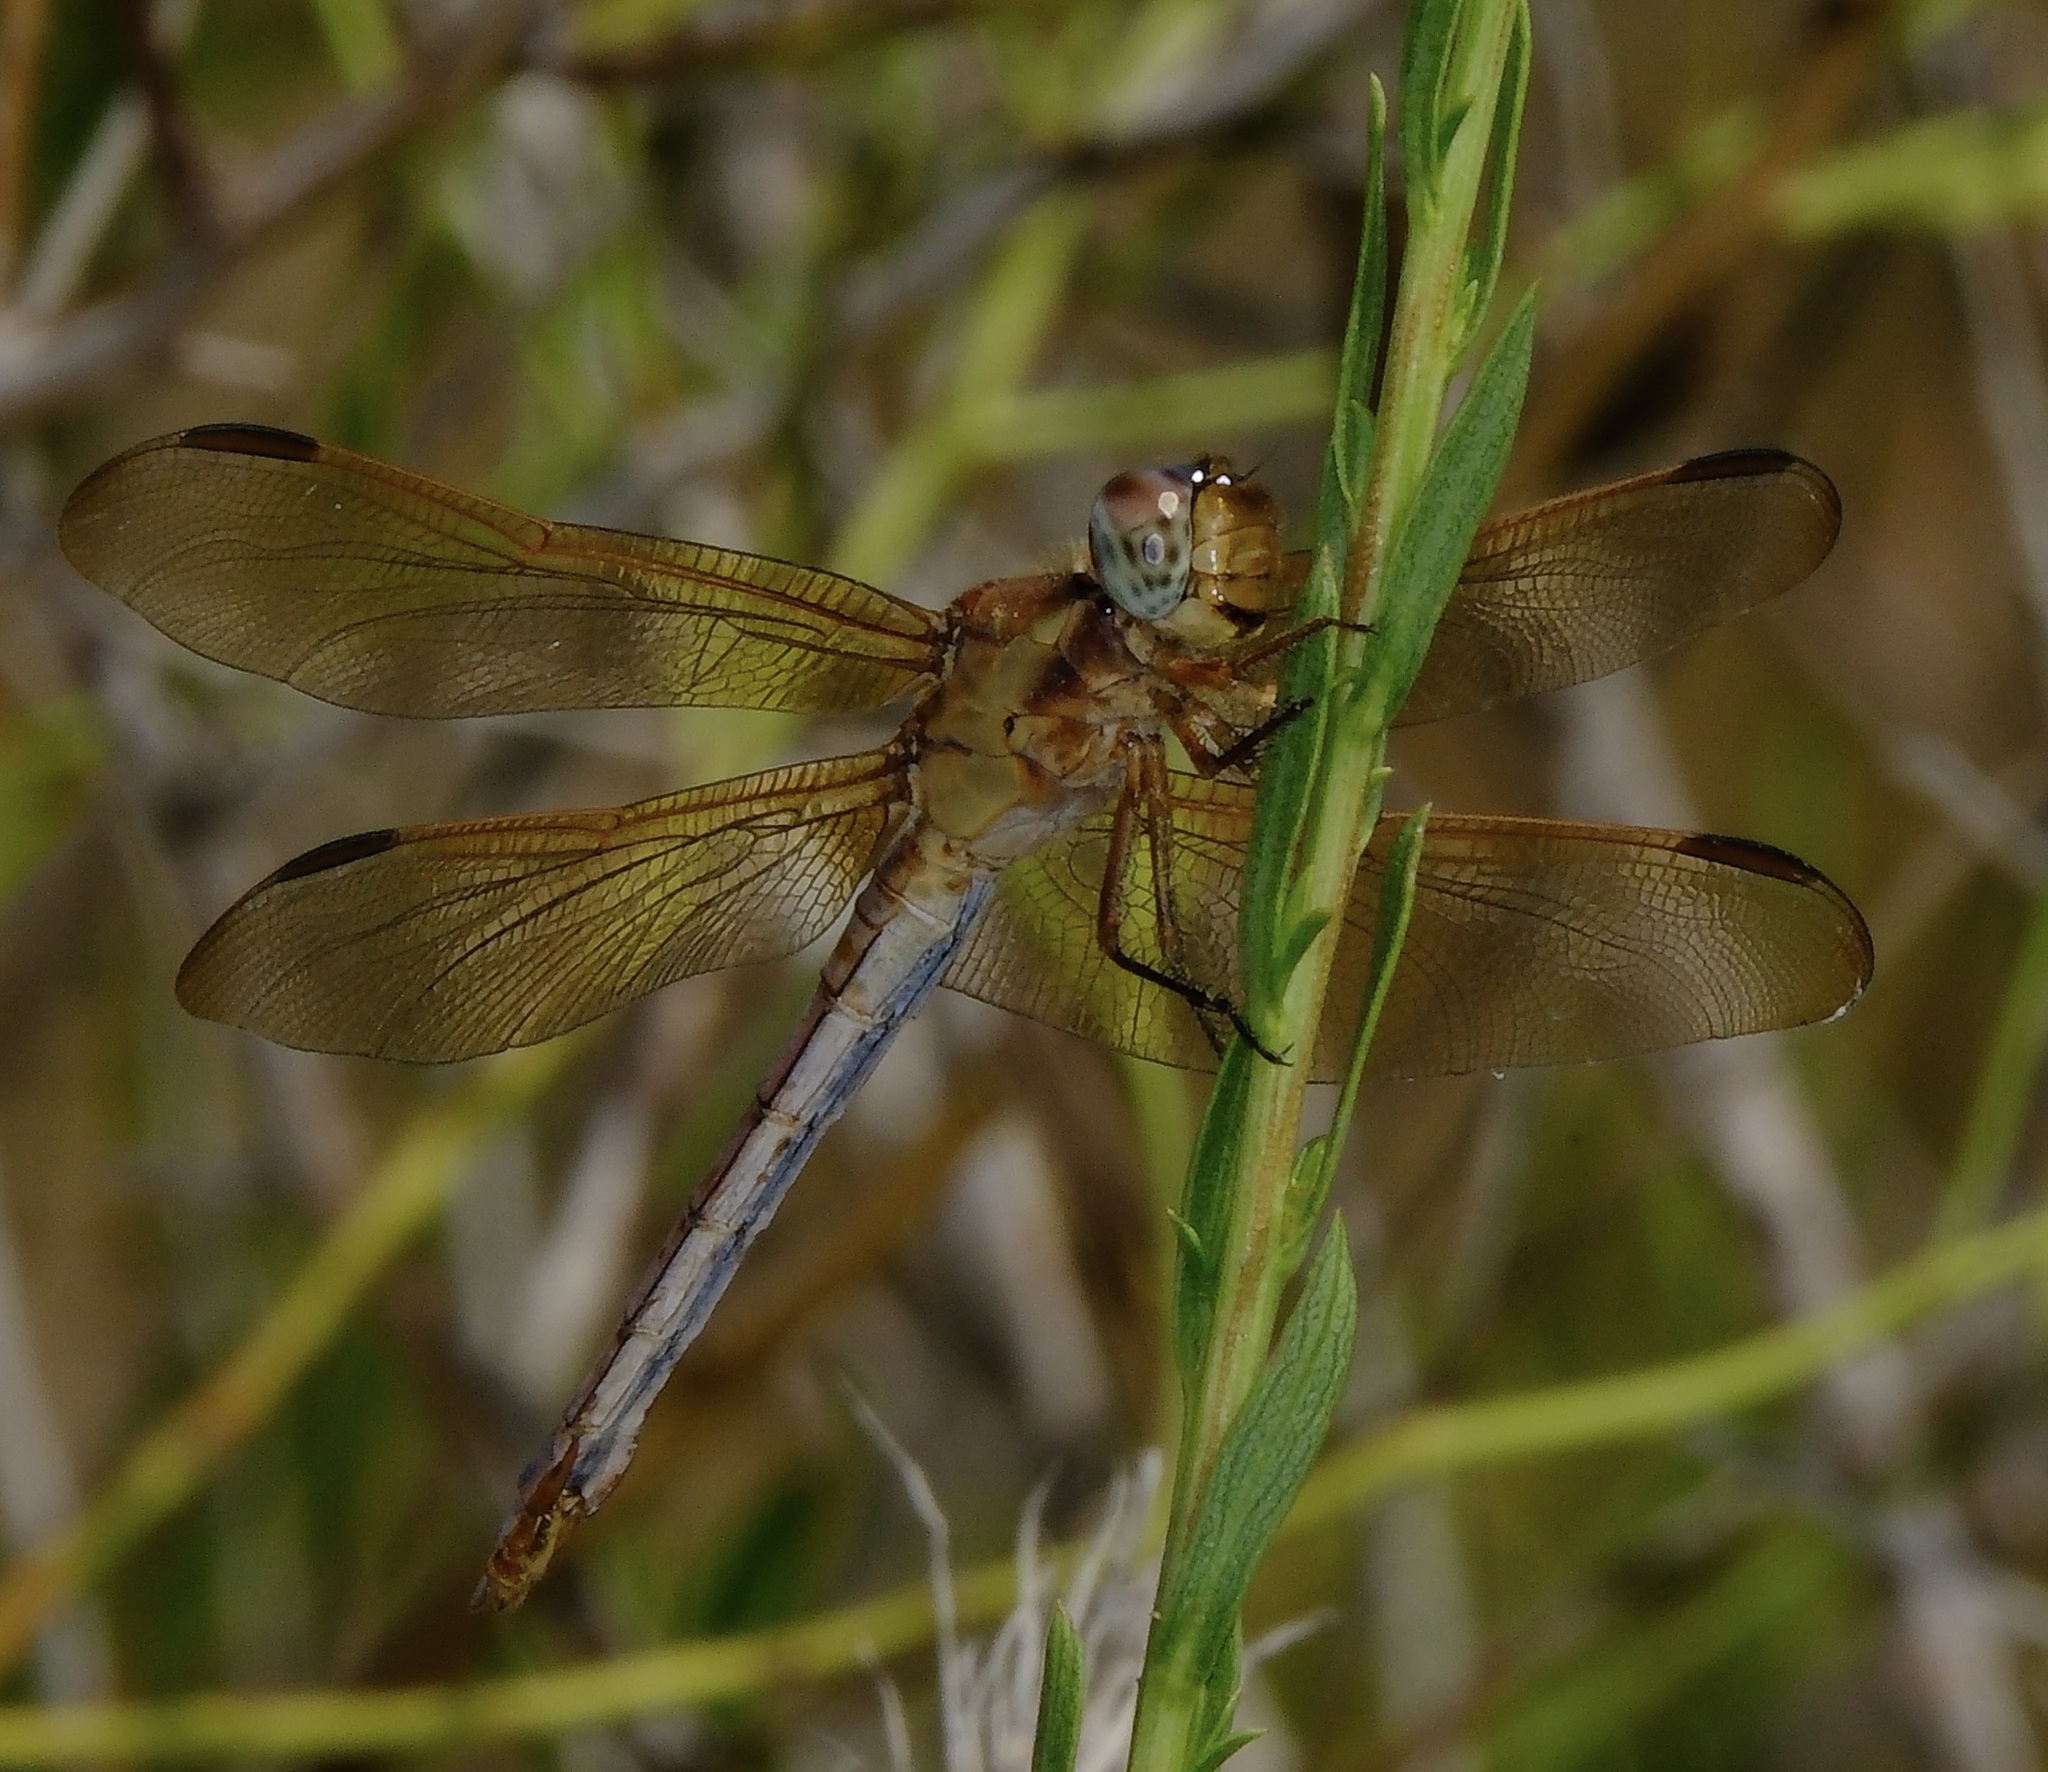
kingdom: Animalia
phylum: Arthropoda
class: Insecta
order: Odonata
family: Libellulidae
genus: Libellula
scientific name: Libellula needhami
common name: Needham's skimmer
